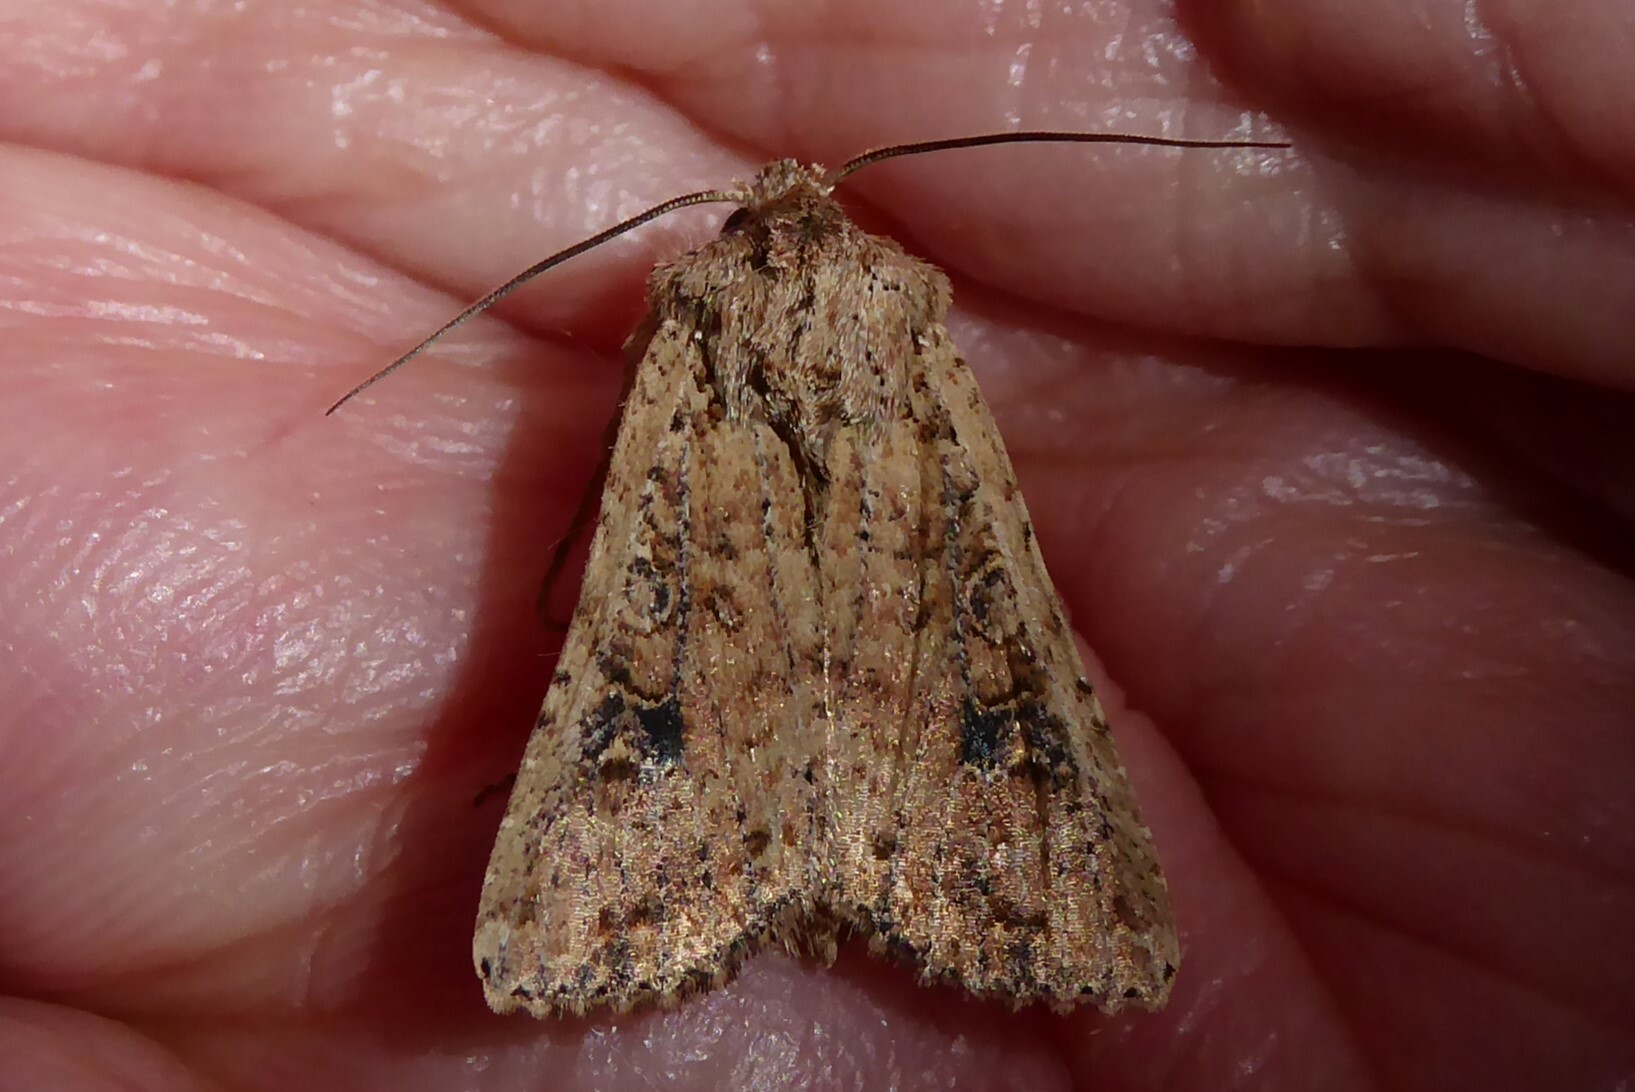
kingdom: Animalia
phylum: Arthropoda
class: Insecta
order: Lepidoptera
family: Noctuidae
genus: Ichneutica
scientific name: Ichneutica morosa
